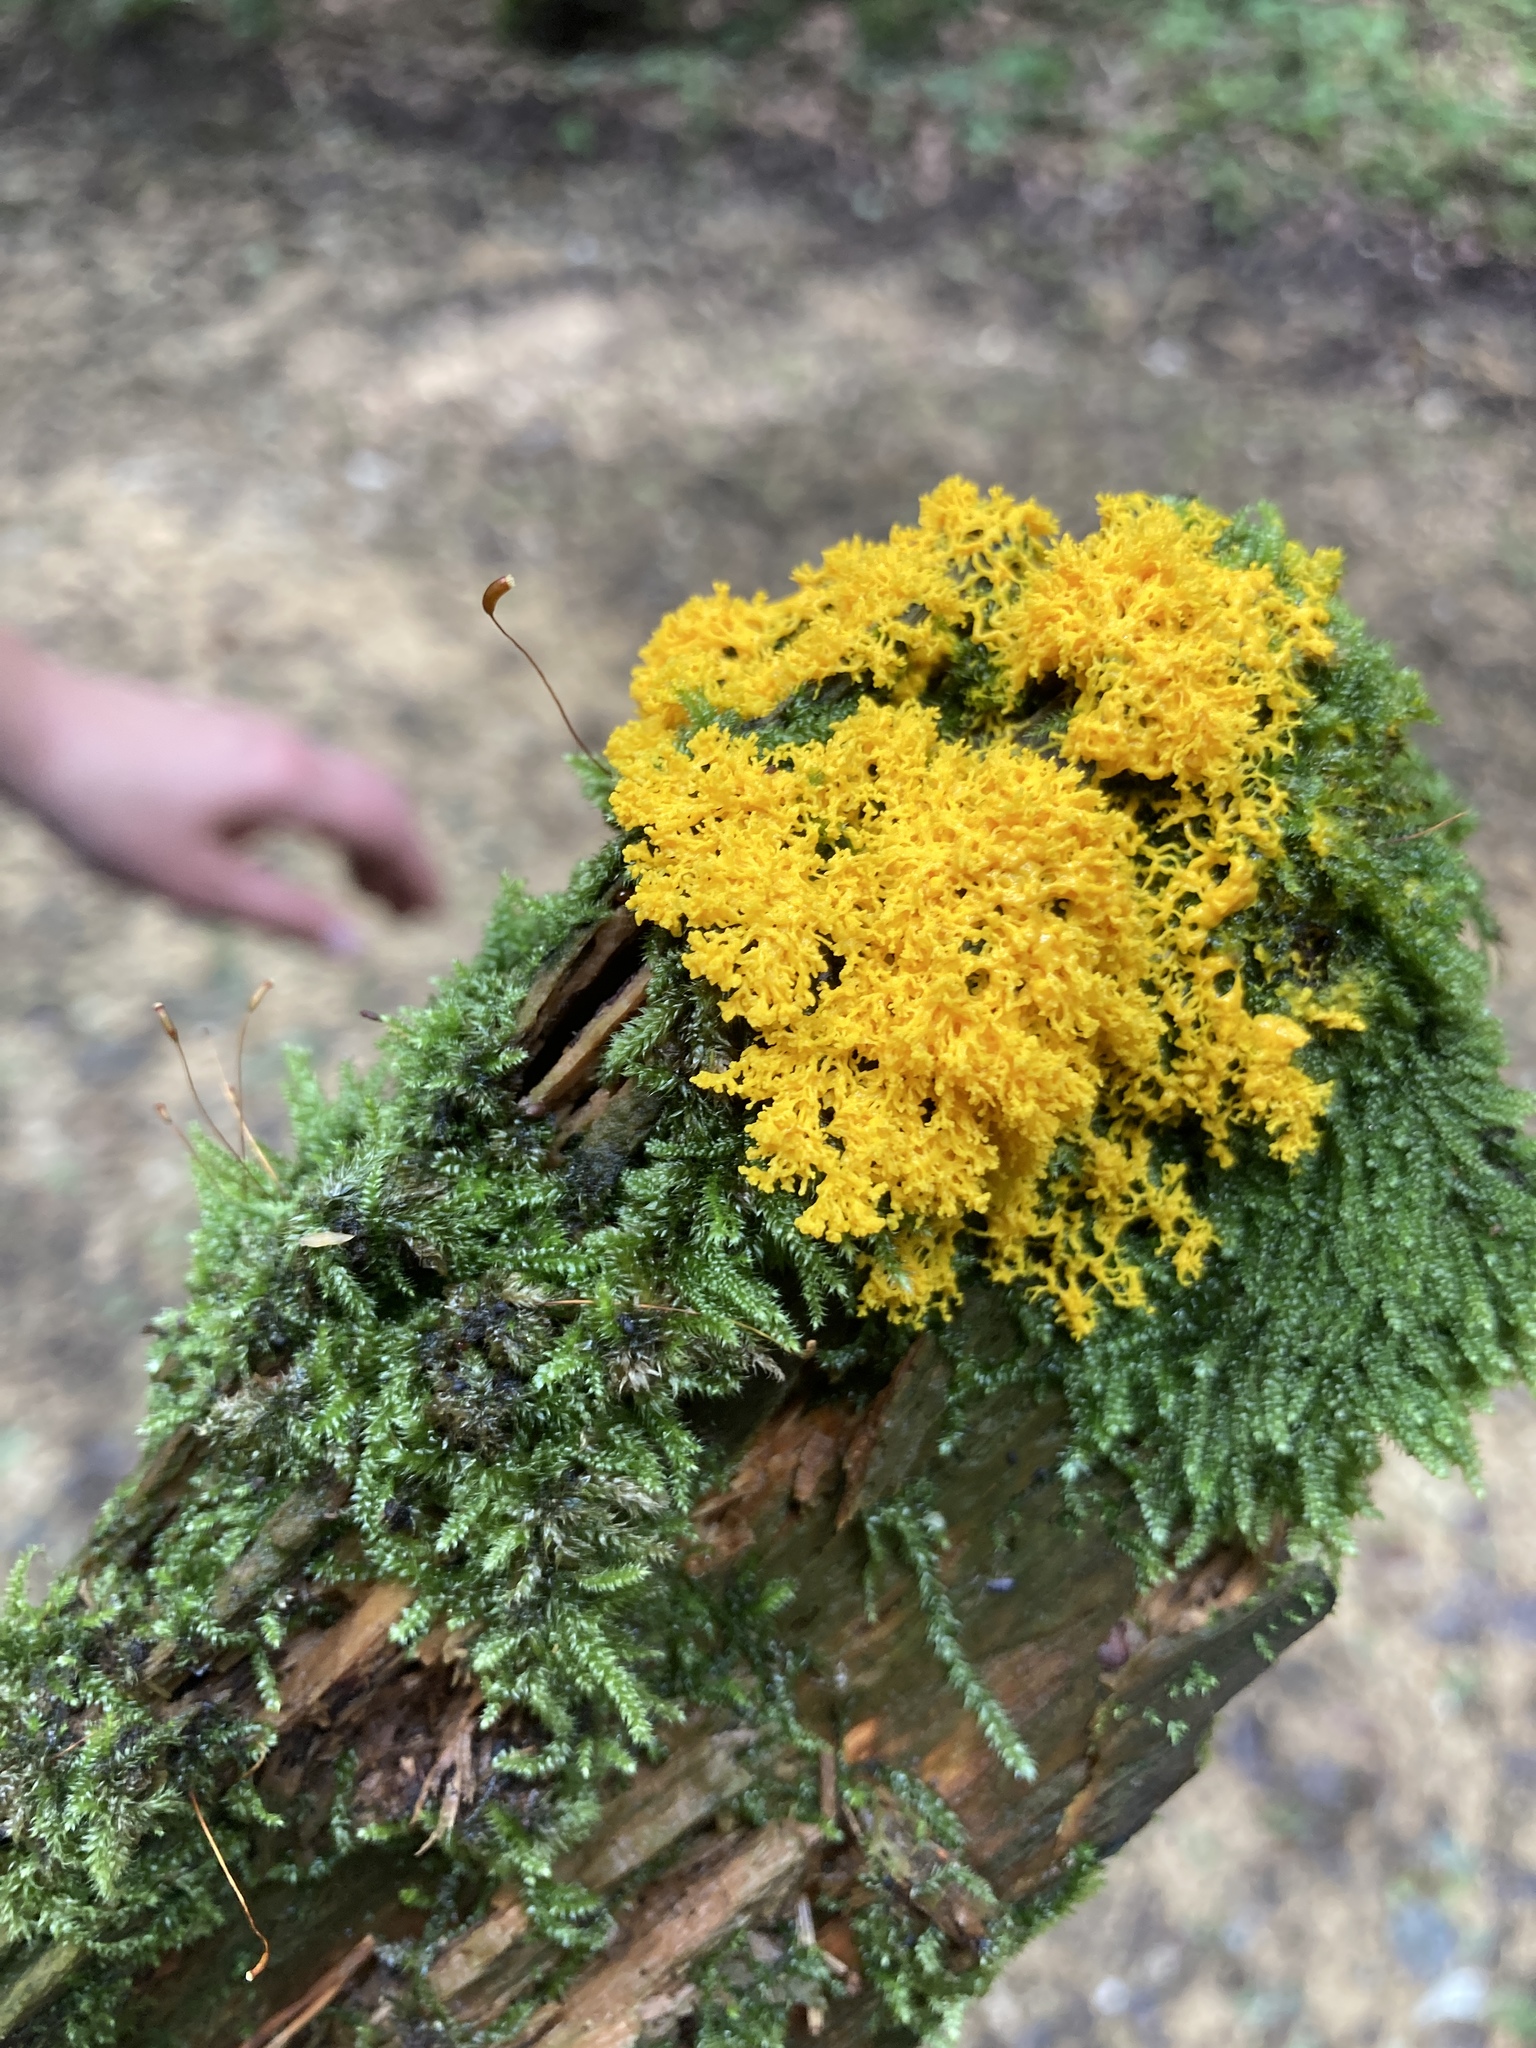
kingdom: Protozoa
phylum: Mycetozoa
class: Myxomycetes
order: Physarales
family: Physaraceae
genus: Fuligo
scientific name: Fuligo septica
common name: Dog vomit slime mold
